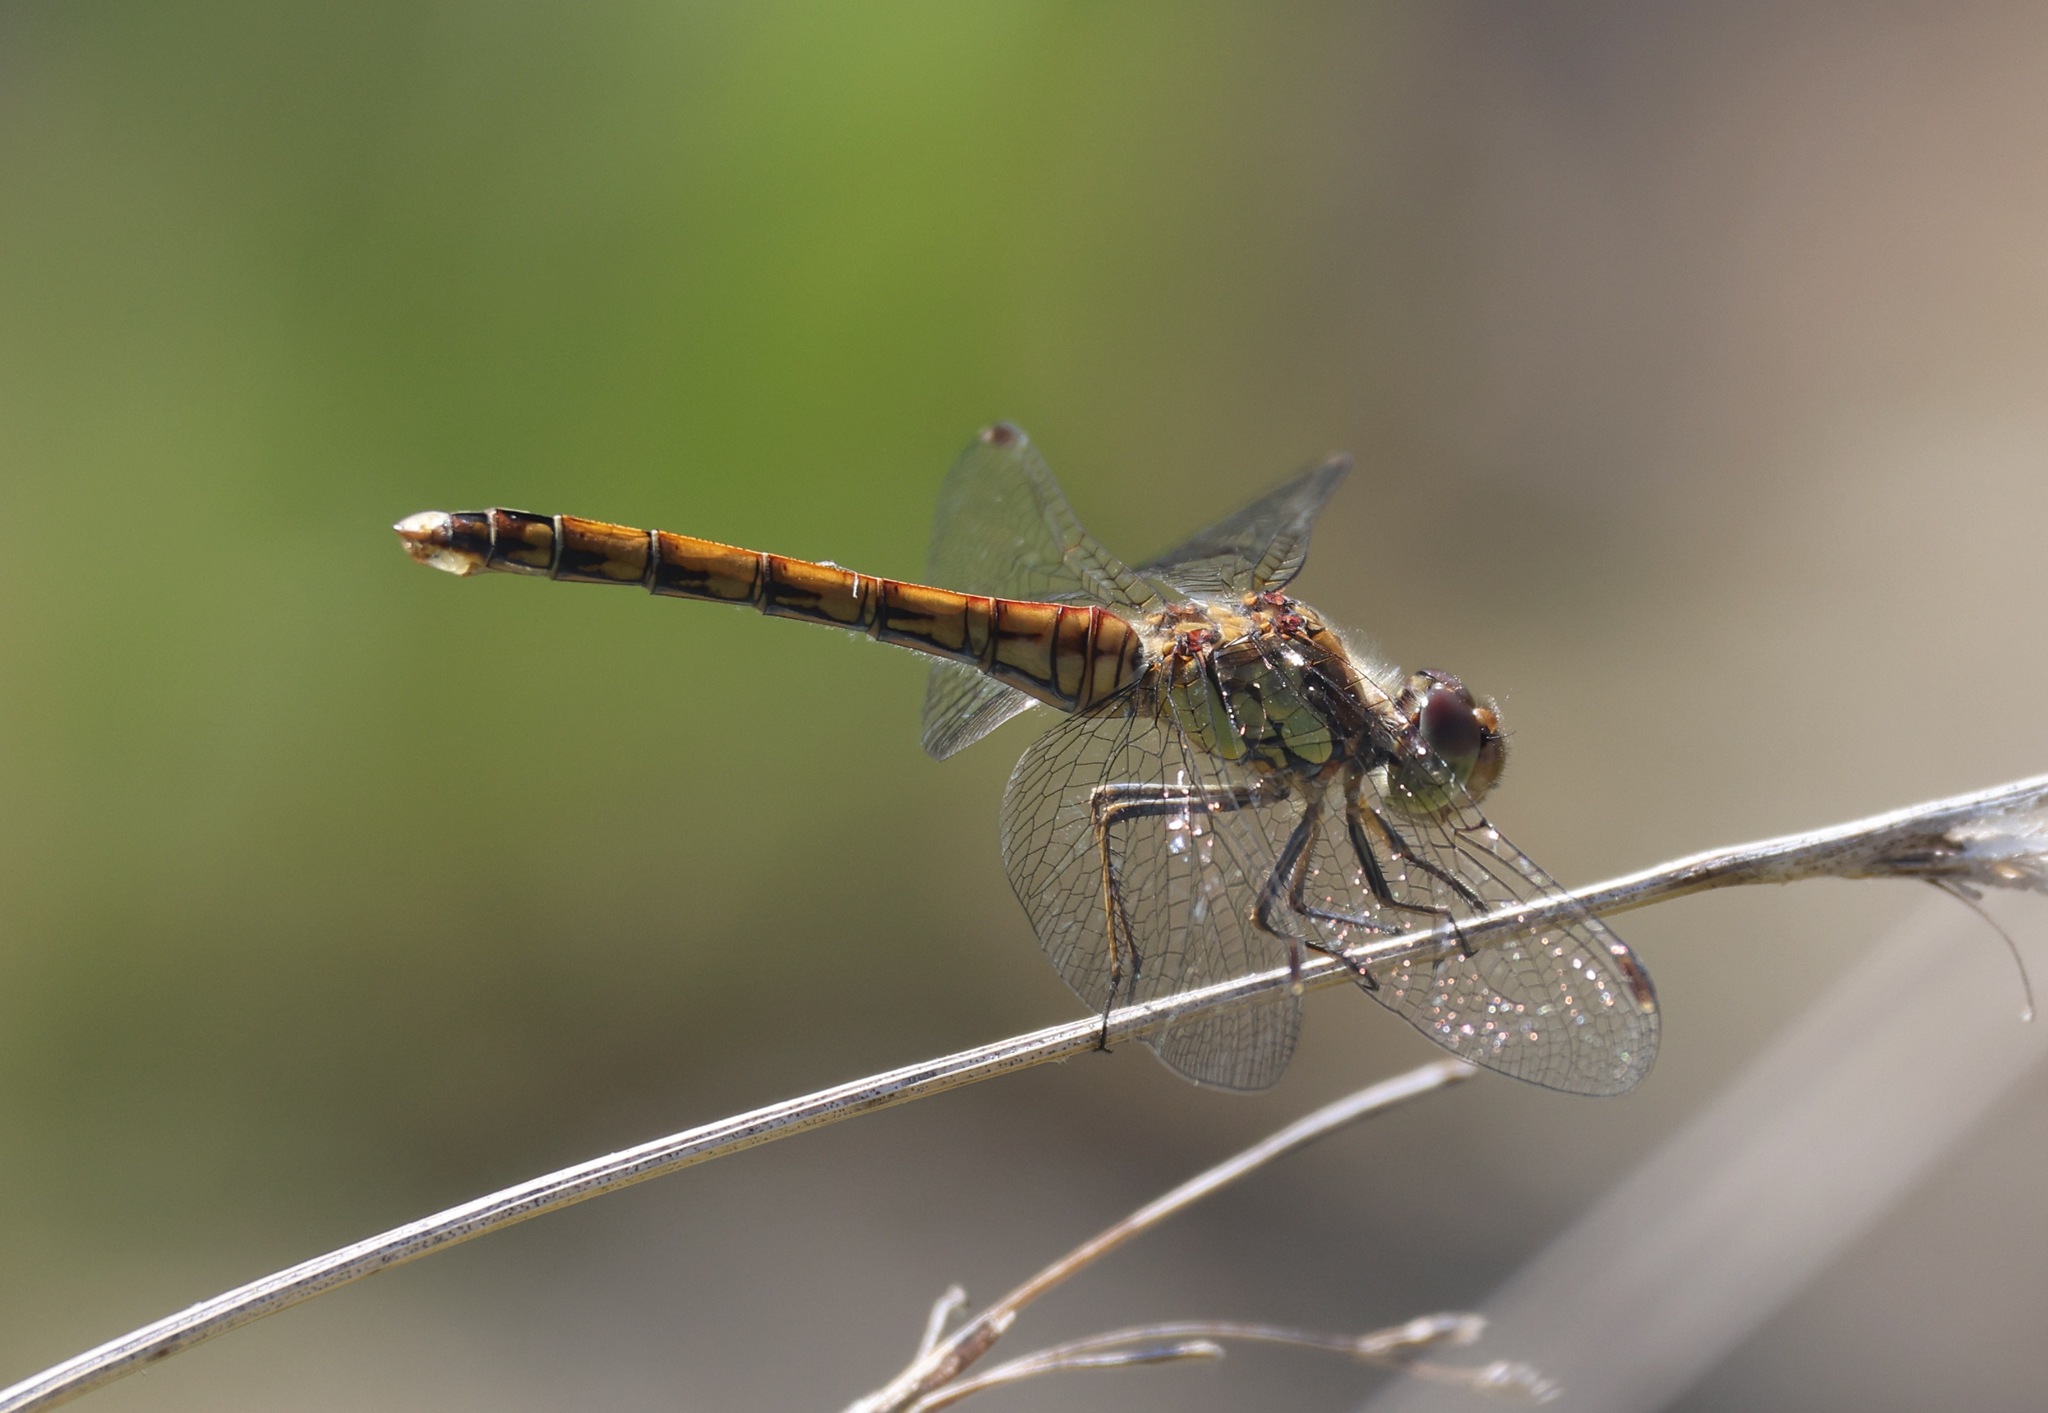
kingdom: Animalia
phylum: Arthropoda
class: Insecta
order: Odonata
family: Libellulidae
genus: Sympetrum
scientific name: Sympetrum striolatum
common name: Common darter
